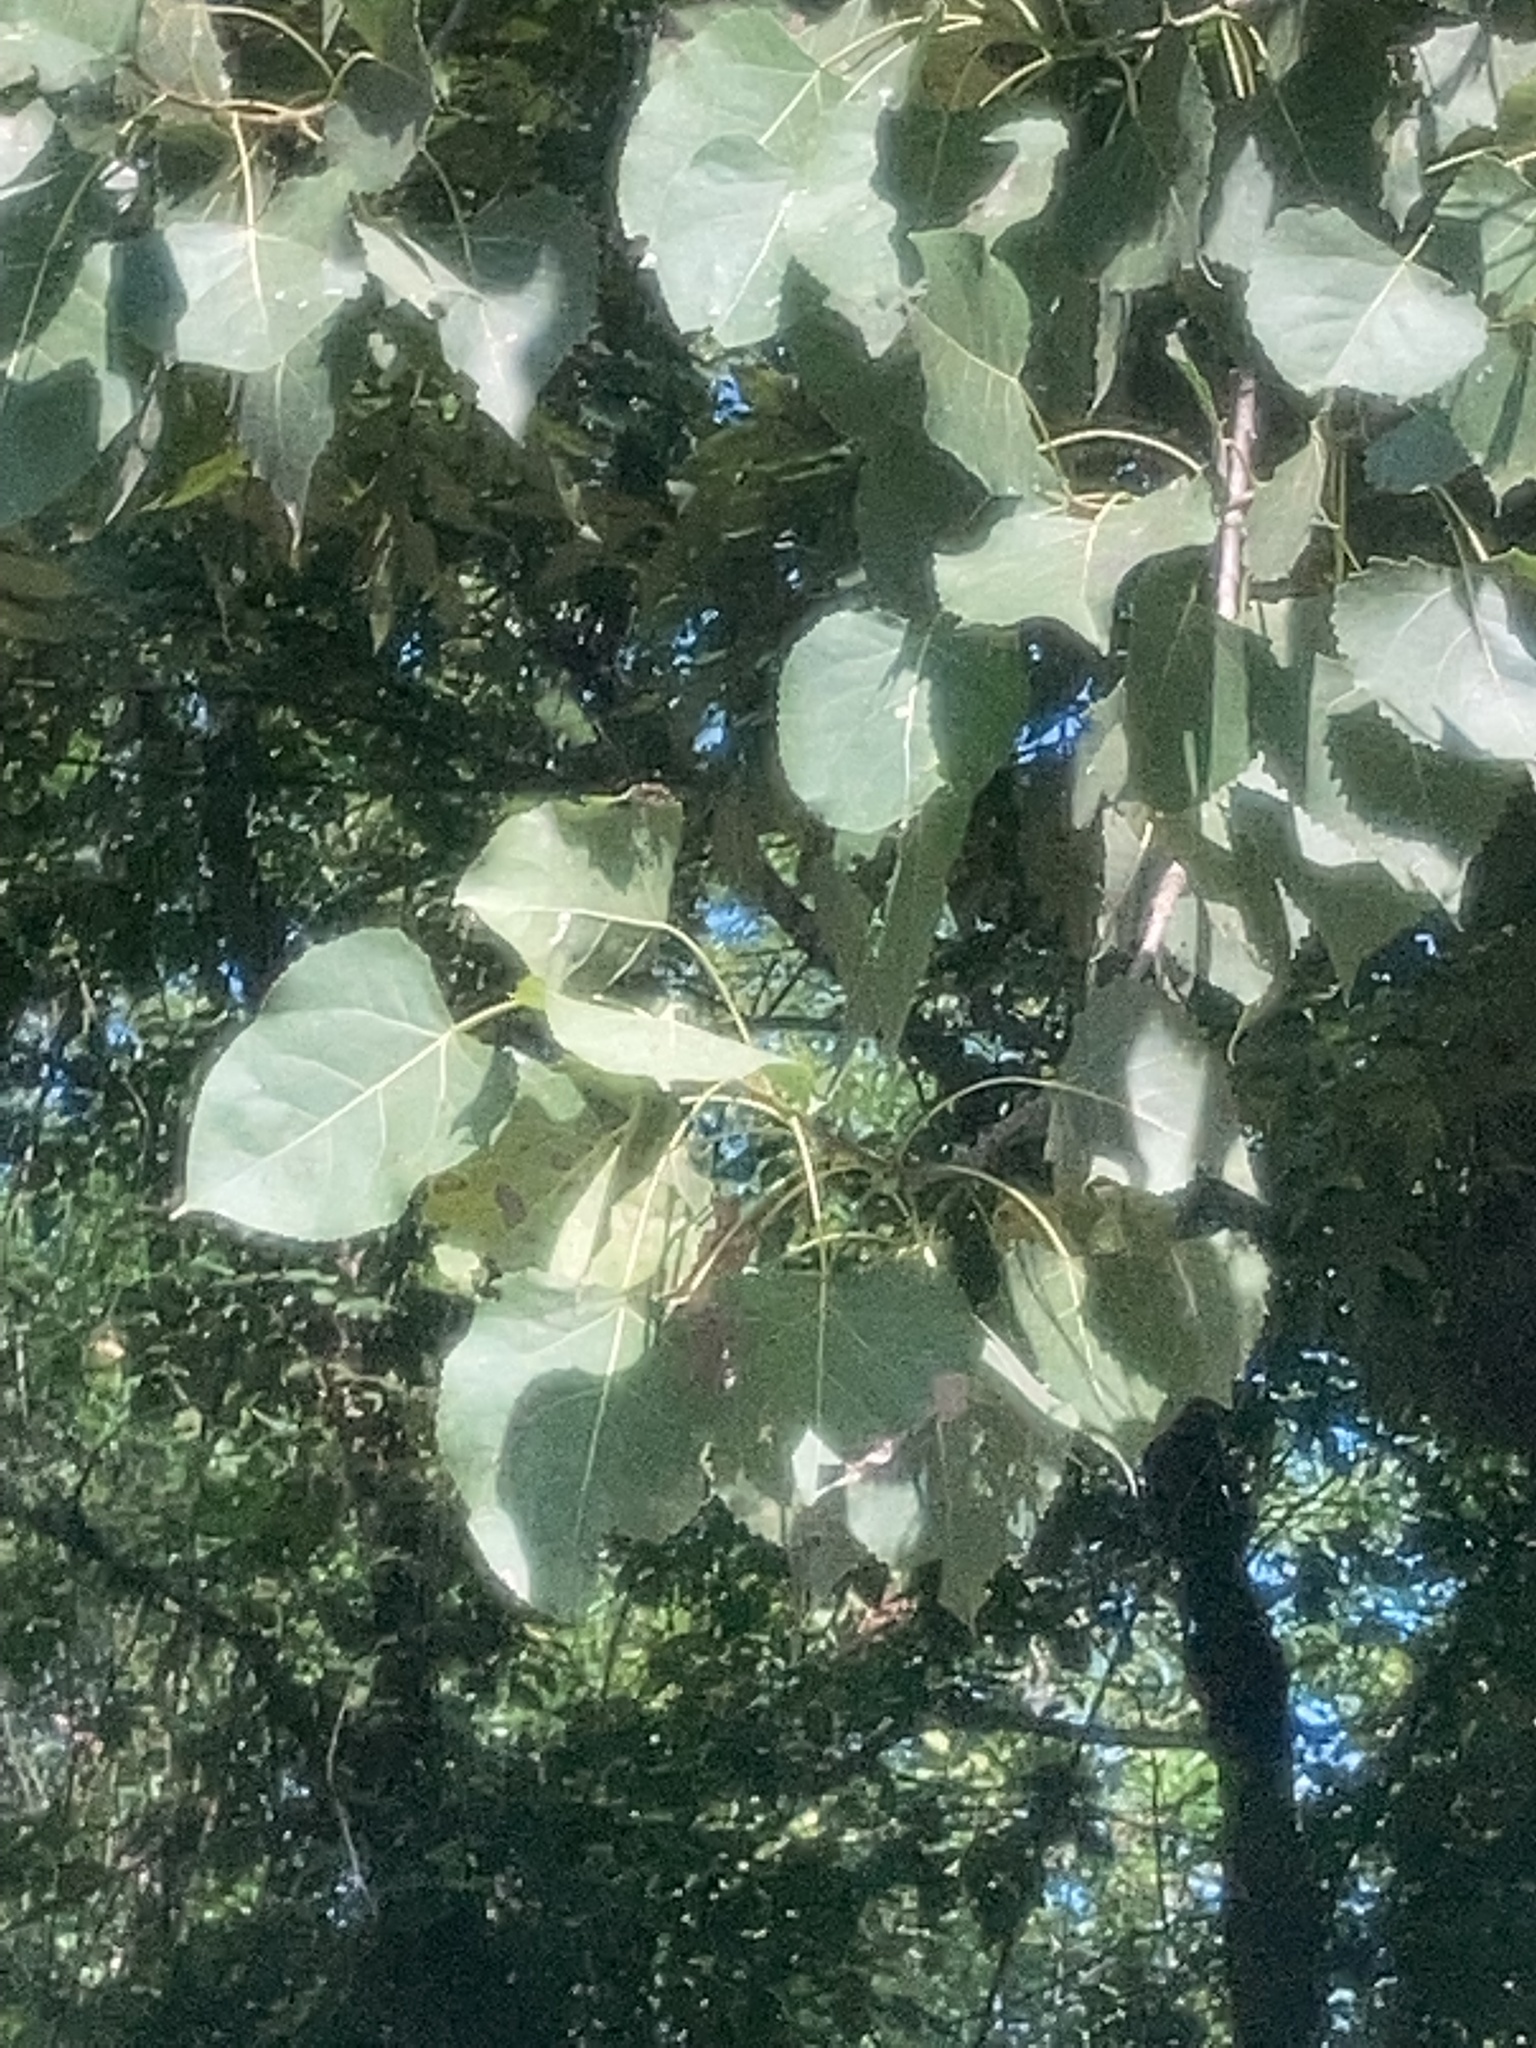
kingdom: Plantae
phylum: Tracheophyta
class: Magnoliopsida
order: Malpighiales
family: Salicaceae
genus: Populus
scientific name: Populus deltoides
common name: Eastern cottonwood
